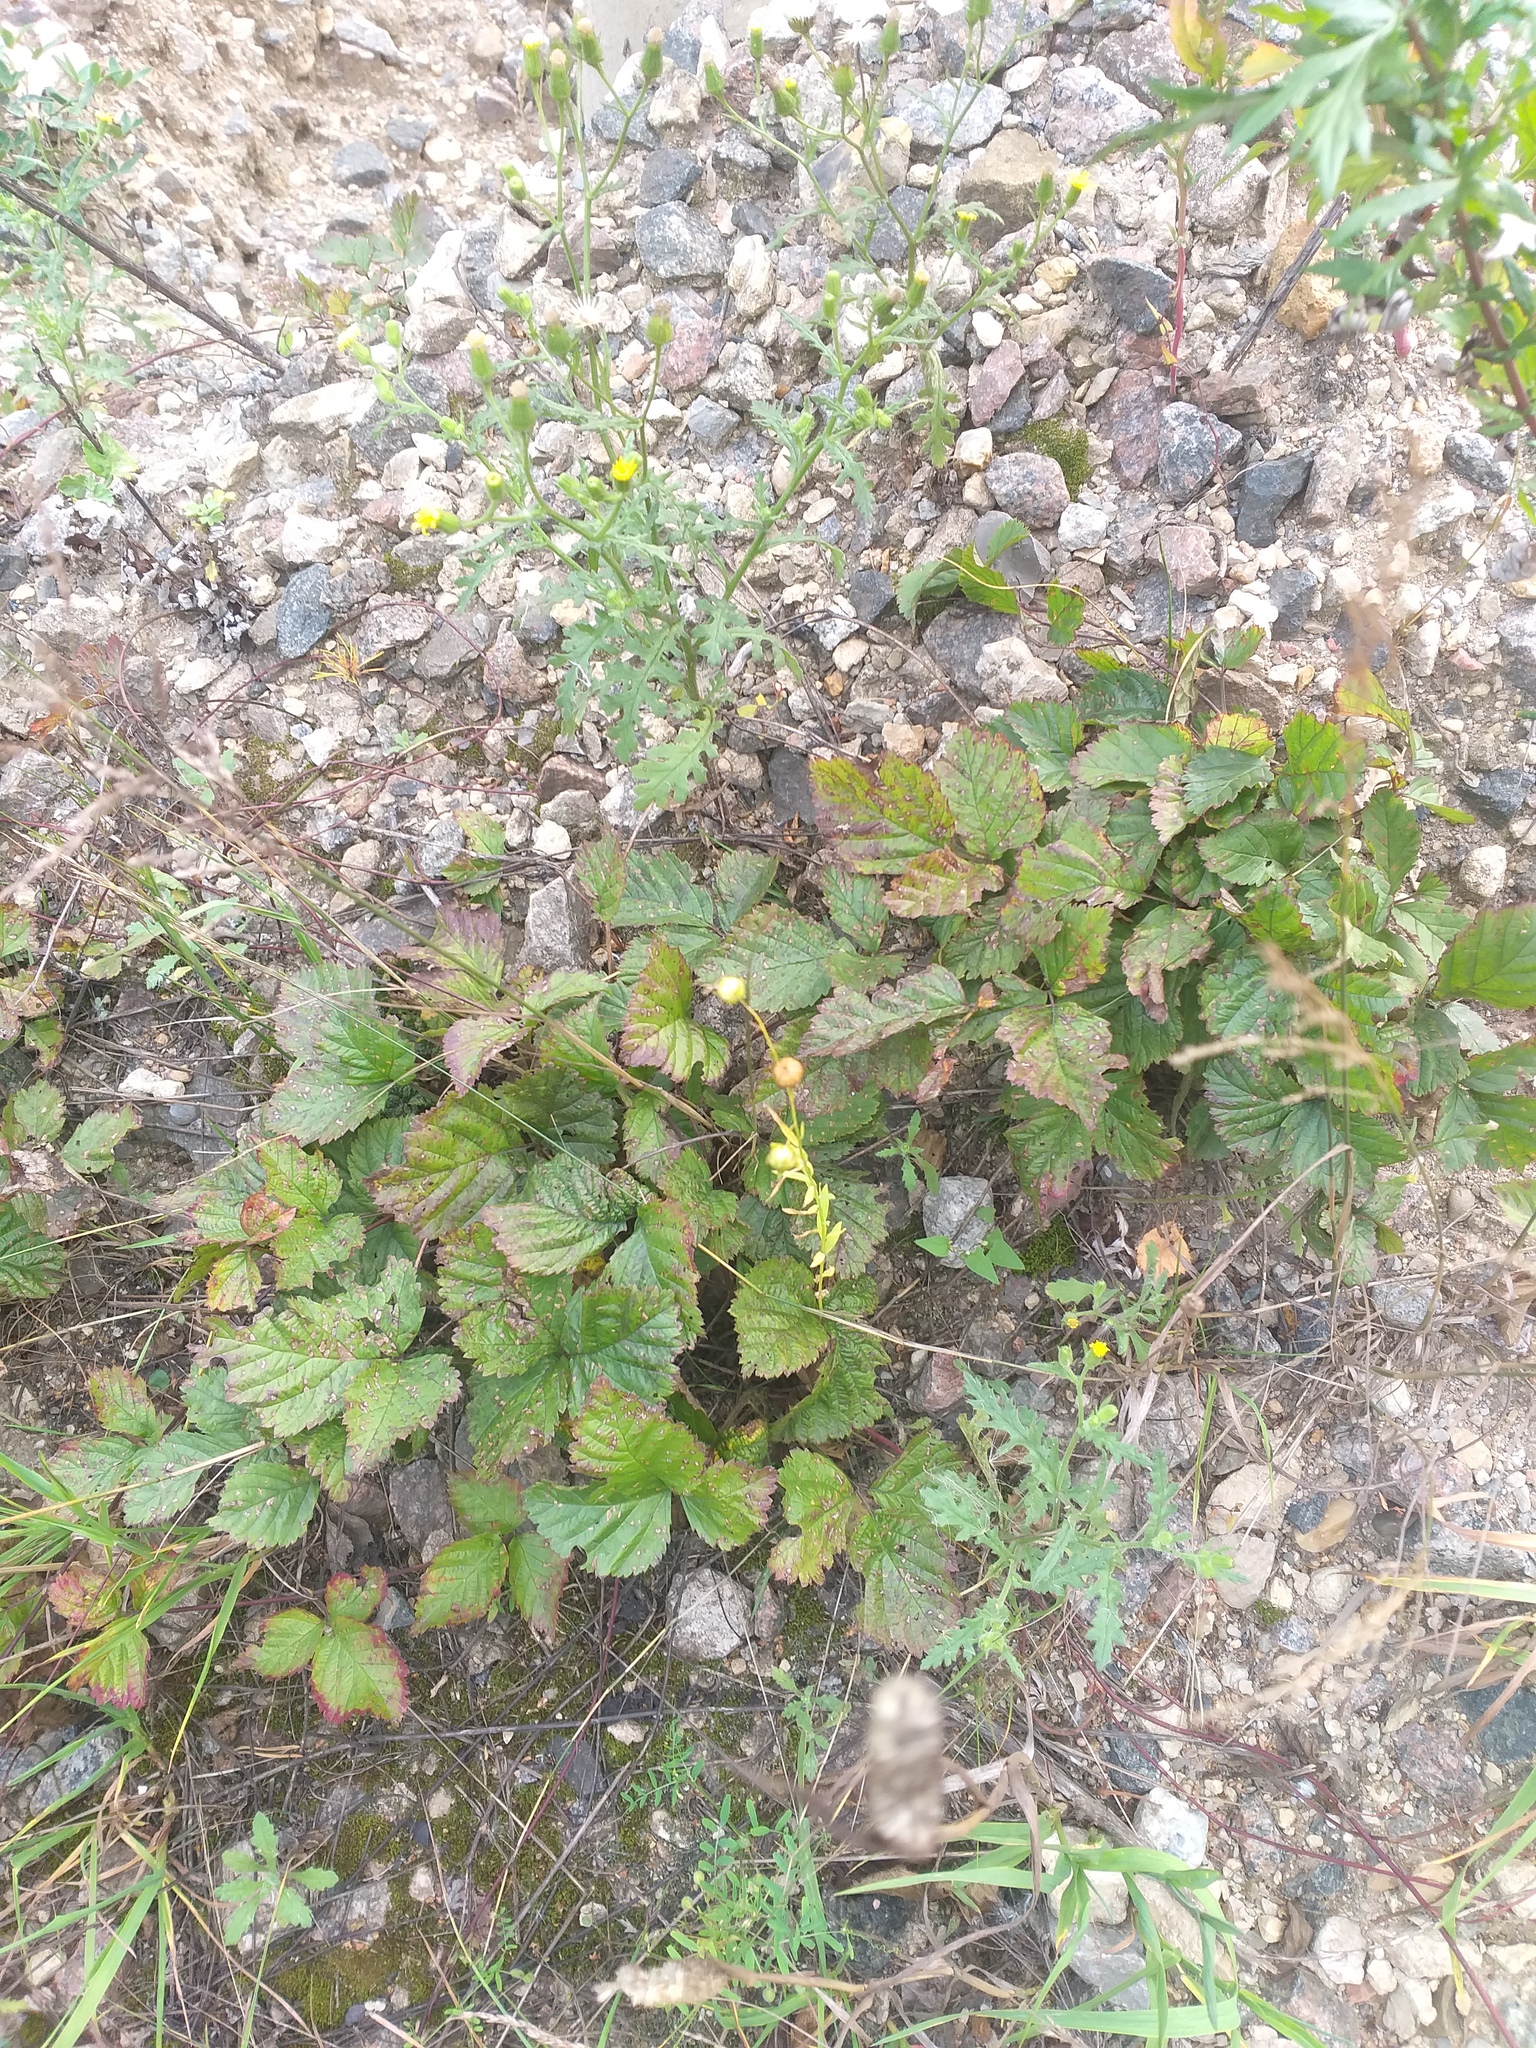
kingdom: Plantae
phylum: Tracheophyta
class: Magnoliopsida
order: Malpighiales
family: Linaceae
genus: Linum
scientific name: Linum usitatissimum
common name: Flax
